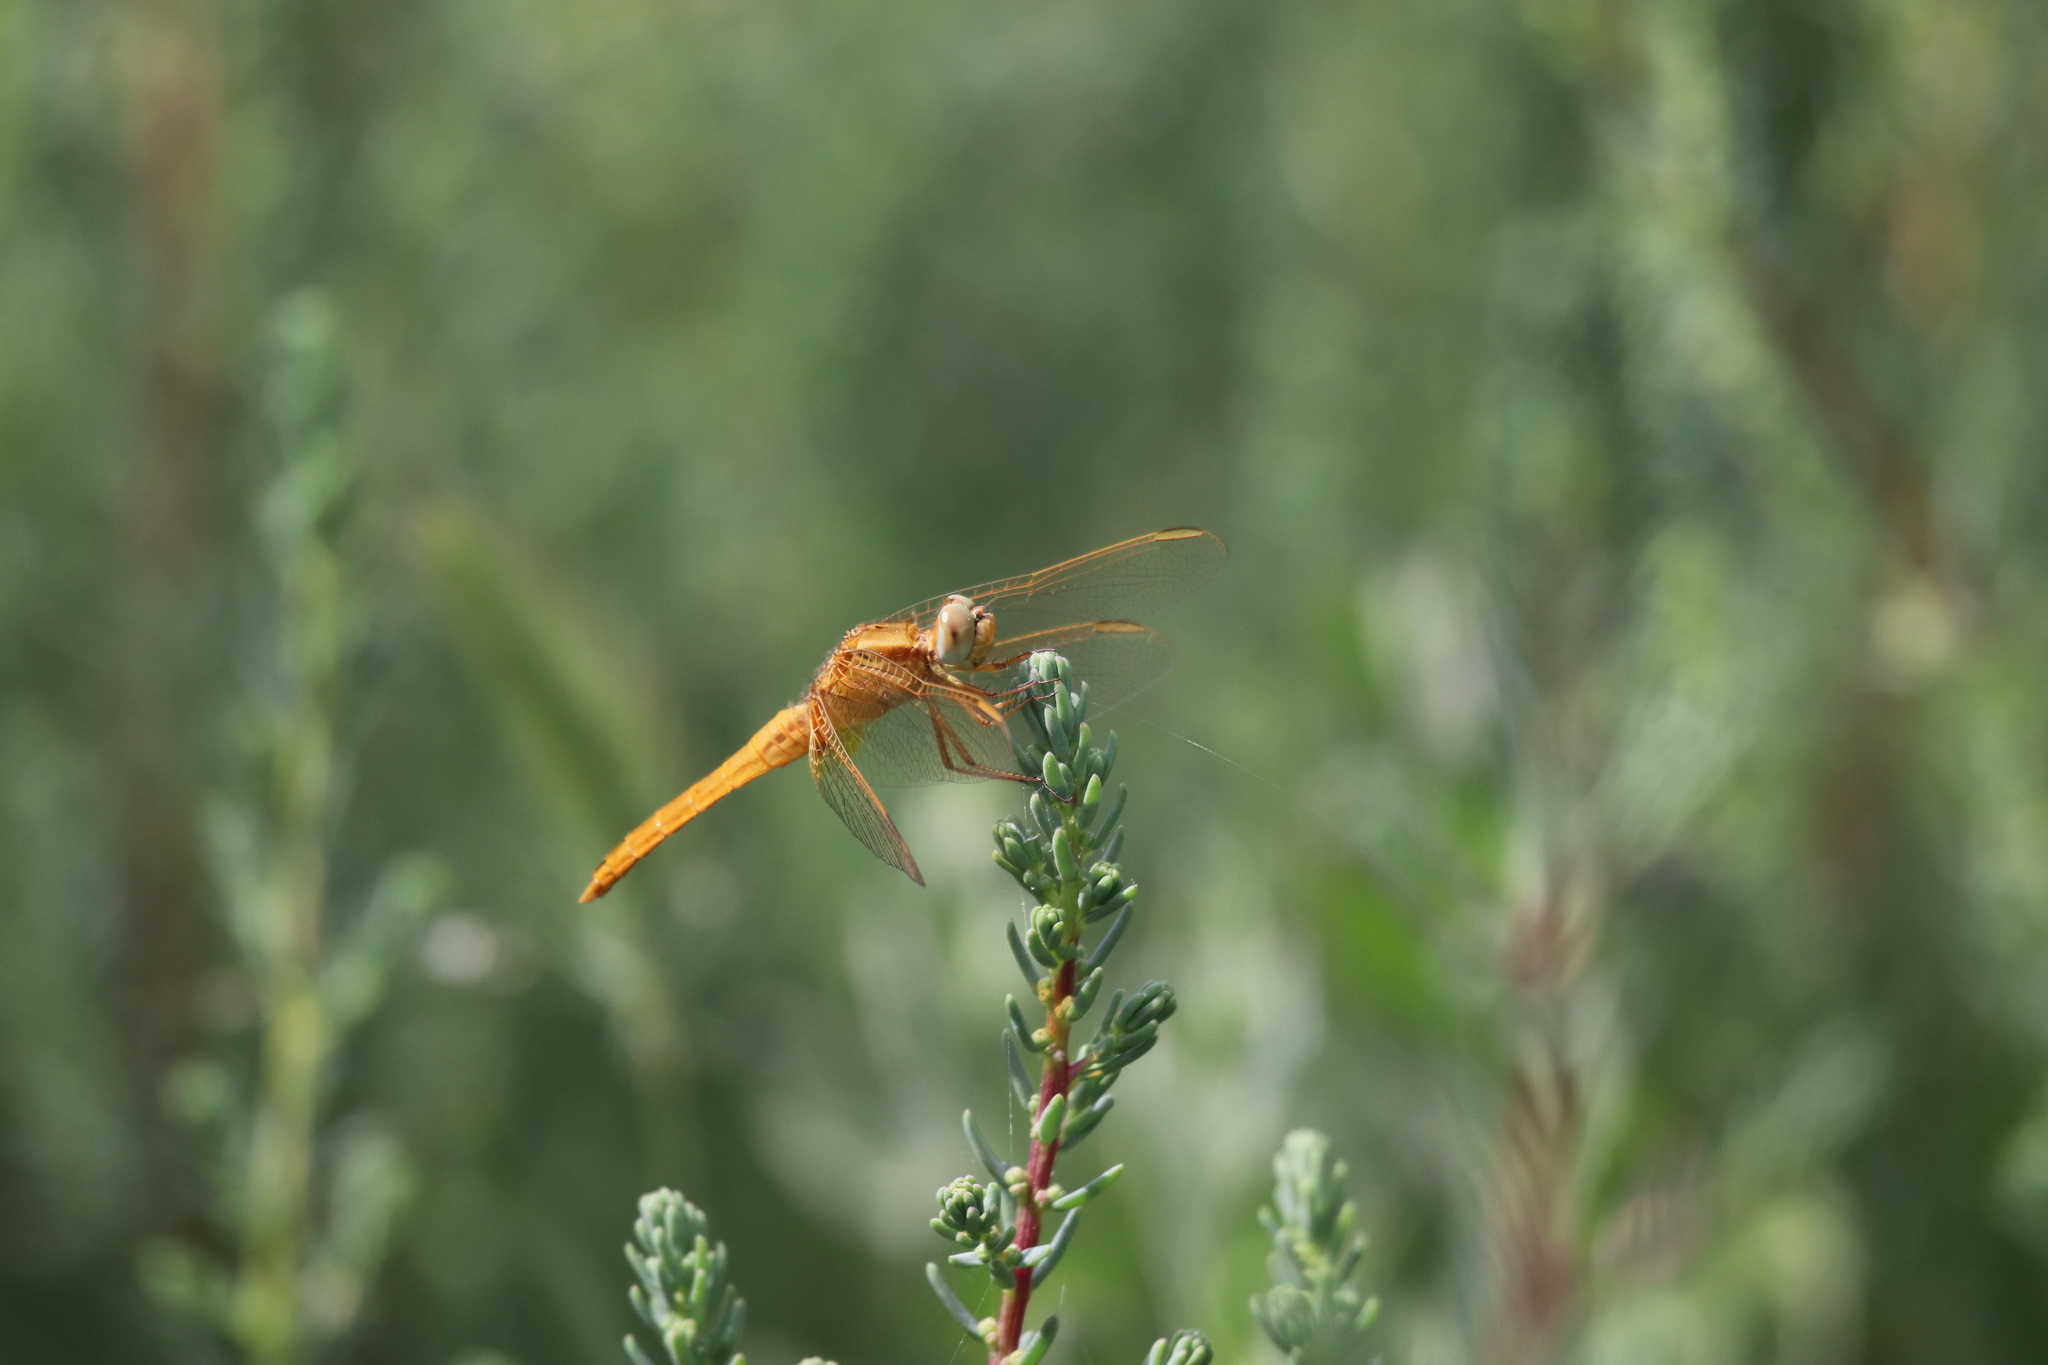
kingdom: Animalia
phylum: Arthropoda
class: Insecta
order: Odonata
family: Libellulidae
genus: Crocothemis
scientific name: Crocothemis erythraea
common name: Scarlet dragonfly
